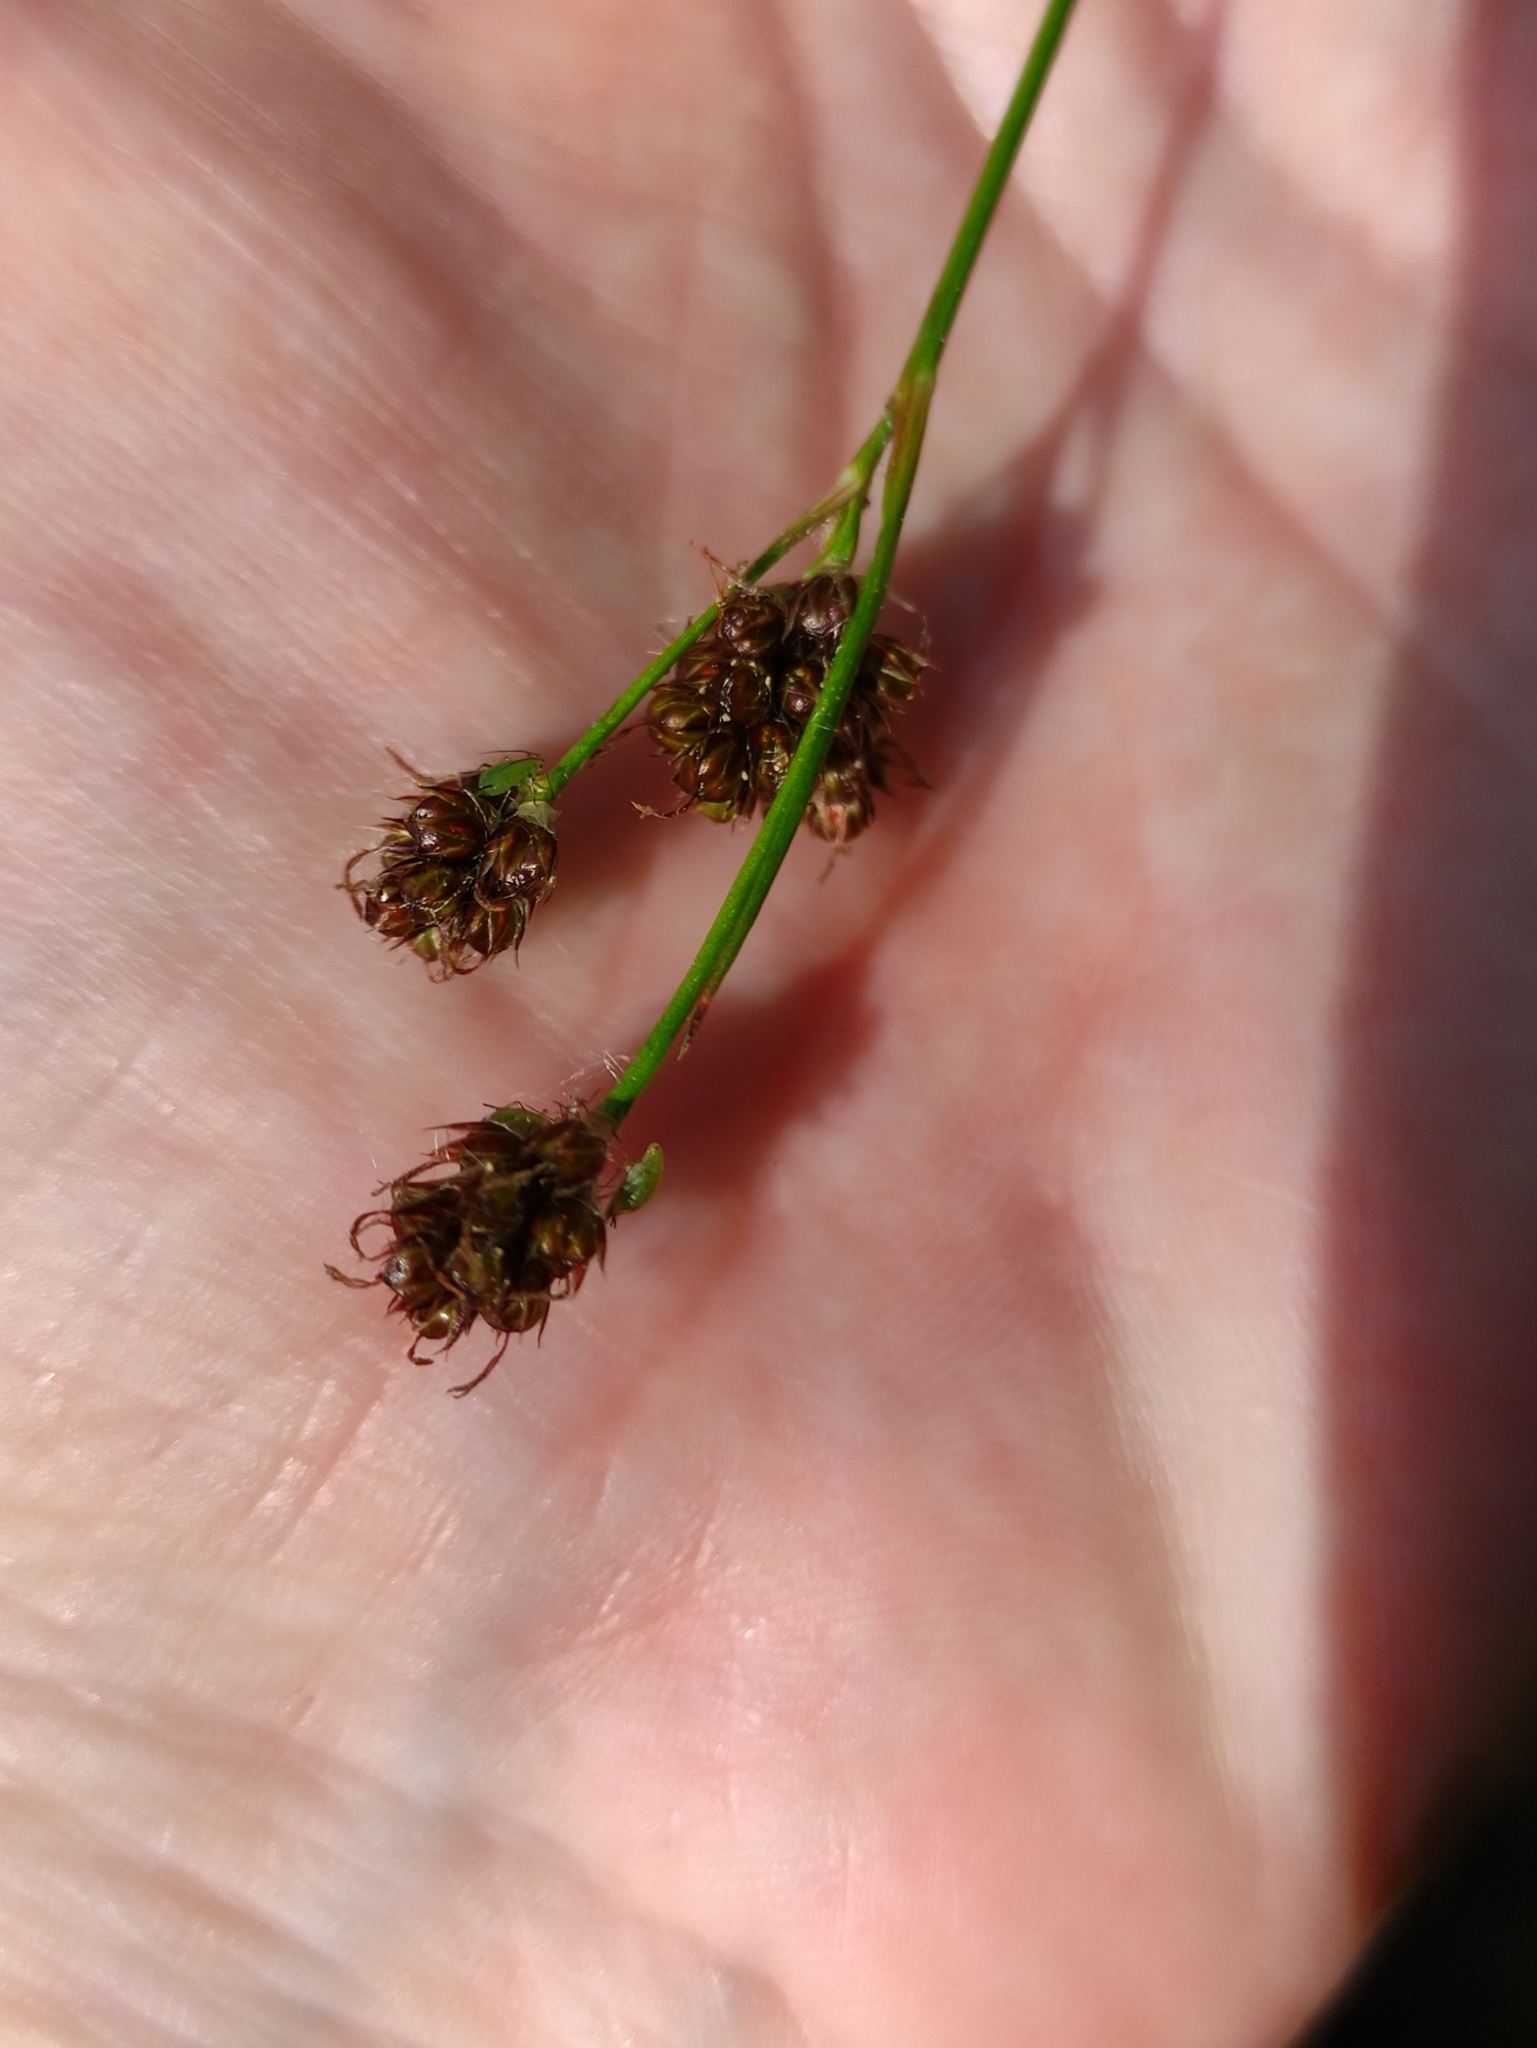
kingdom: Plantae
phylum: Tracheophyta
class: Liliopsida
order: Poales
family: Juncaceae
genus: Luzula
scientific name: Luzula multiflora
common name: Heath wood-rush
